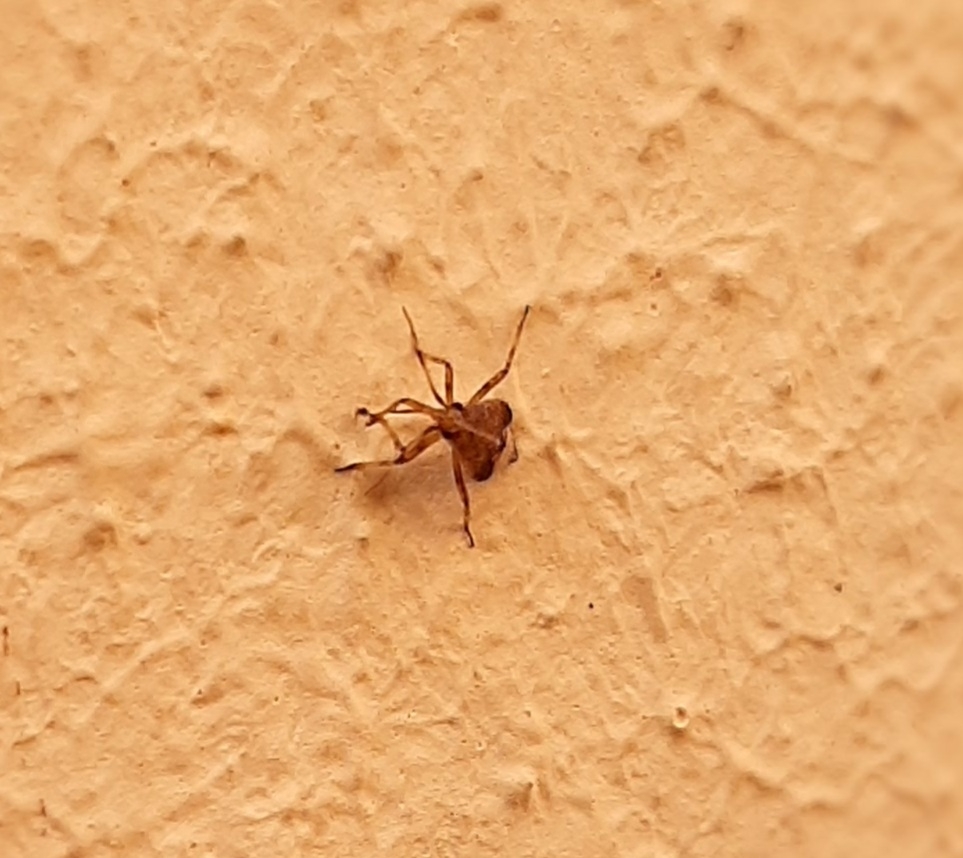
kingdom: Animalia
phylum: Arthropoda
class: Insecta
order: Hemiptera
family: Miridae
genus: Deraeocoris
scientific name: Deraeocoris flavilinea
